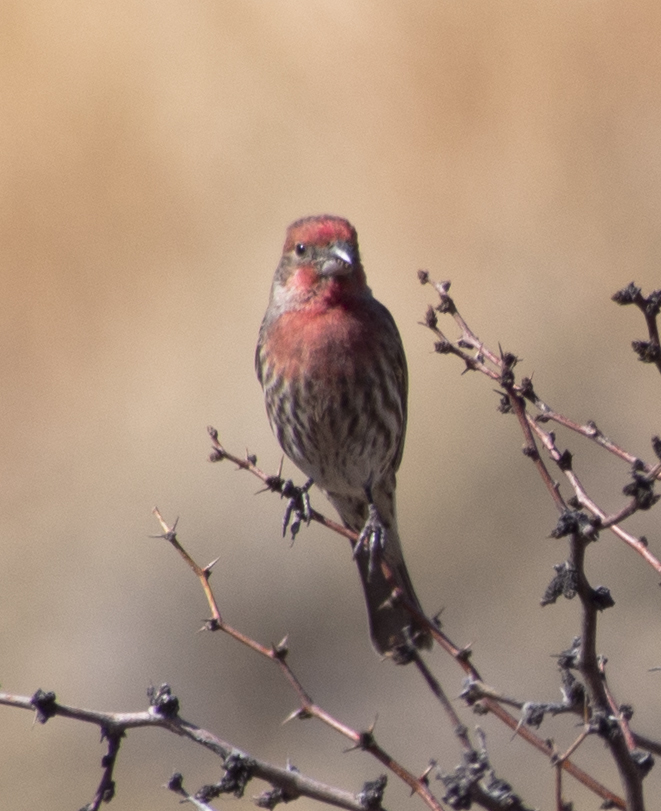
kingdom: Animalia
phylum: Chordata
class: Aves
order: Passeriformes
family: Fringillidae
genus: Haemorhous
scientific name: Haemorhous mexicanus
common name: House finch
